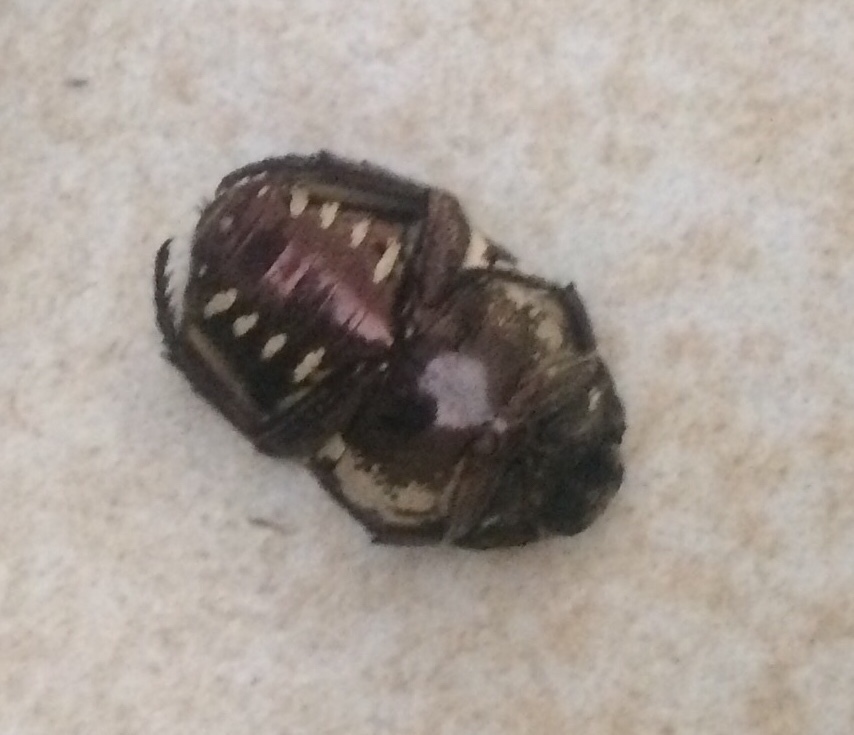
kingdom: Animalia
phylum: Arthropoda
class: Insecta
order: Coleoptera
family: Scarabaeidae
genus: Protaetia
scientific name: Protaetia aurichalcea
